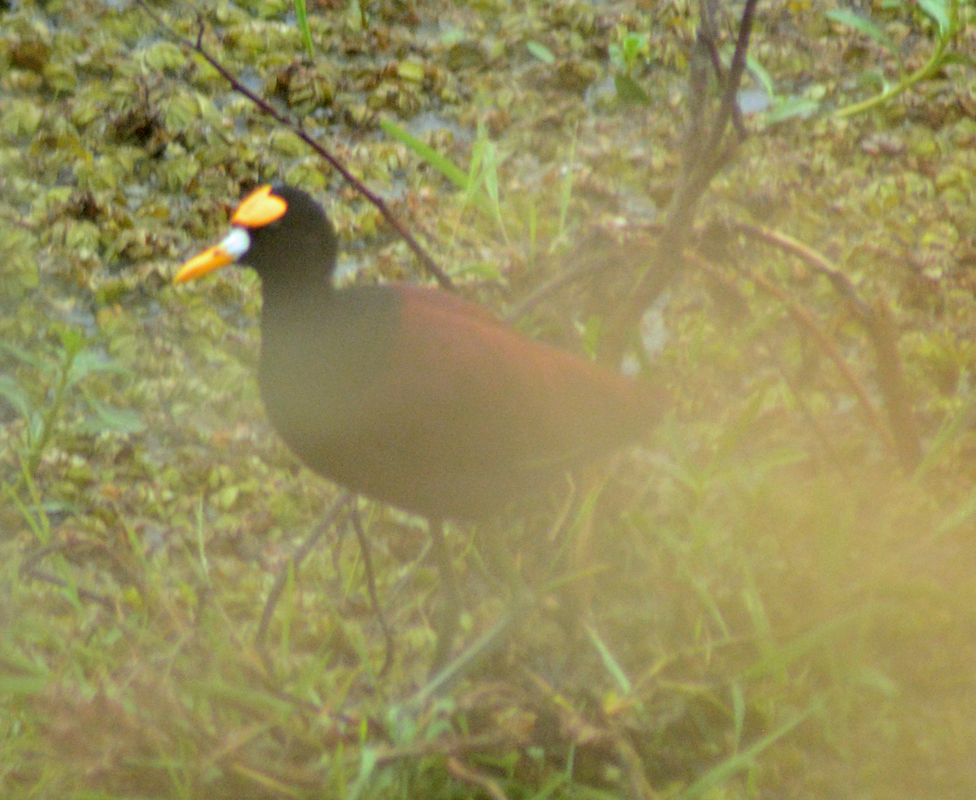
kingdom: Animalia
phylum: Chordata
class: Aves
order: Charadriiformes
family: Jacanidae
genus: Jacana
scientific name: Jacana spinosa
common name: Northern jacana
